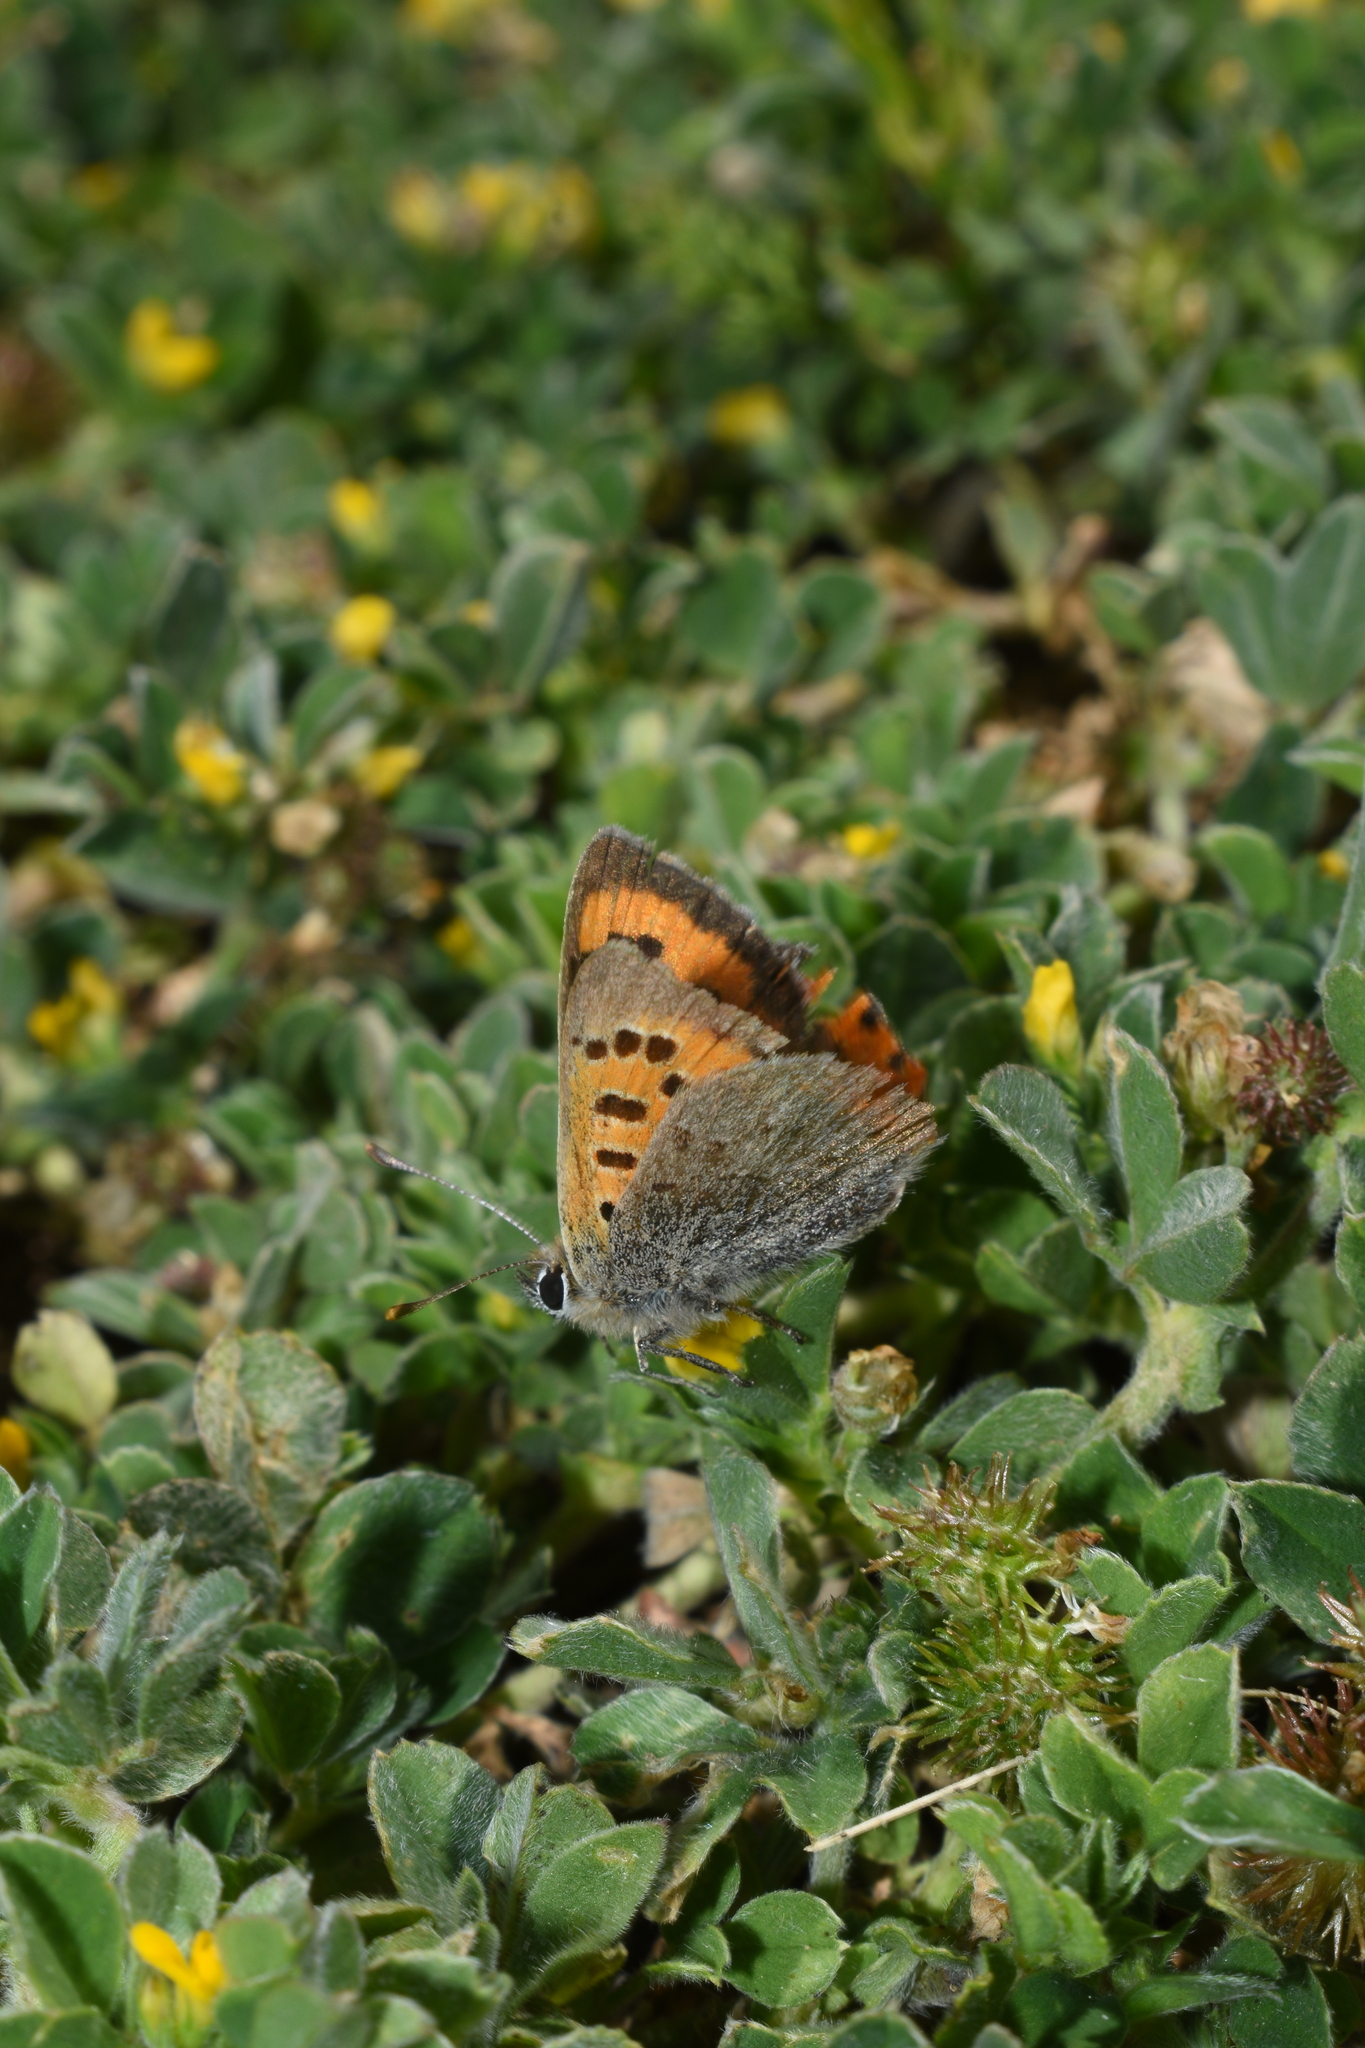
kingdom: Animalia
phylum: Arthropoda
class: Insecta
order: Lepidoptera
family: Lycaenidae
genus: Lycaena
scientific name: Lycaena phlaeas
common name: Small copper
